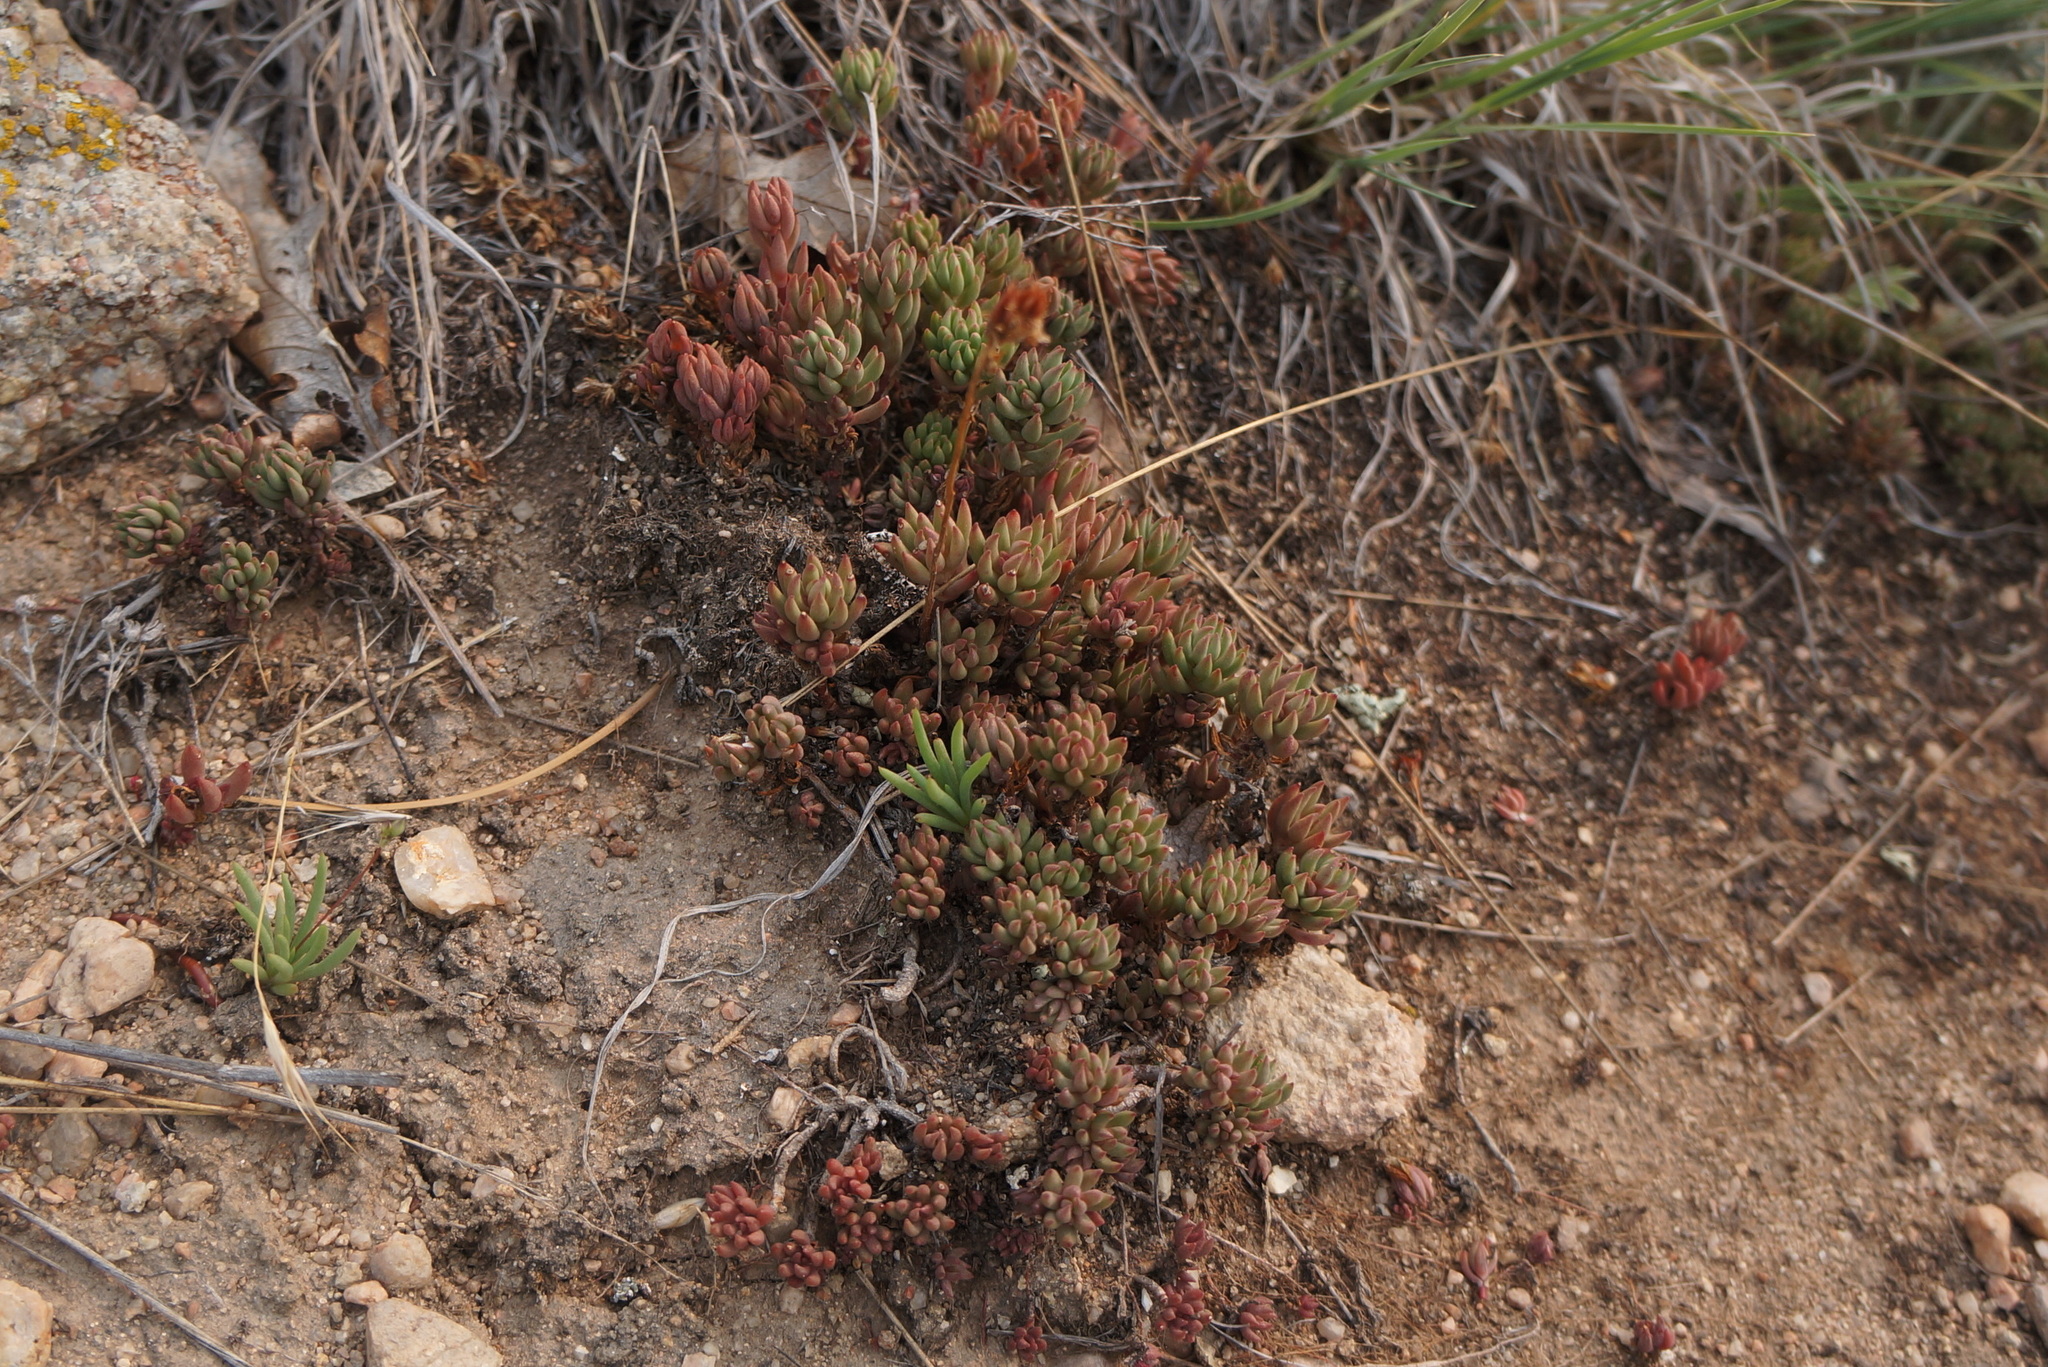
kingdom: Plantae
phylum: Tracheophyta
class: Magnoliopsida
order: Saxifragales
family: Crassulaceae
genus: Sedum
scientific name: Sedum lanceolatum
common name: Common stonecrop
